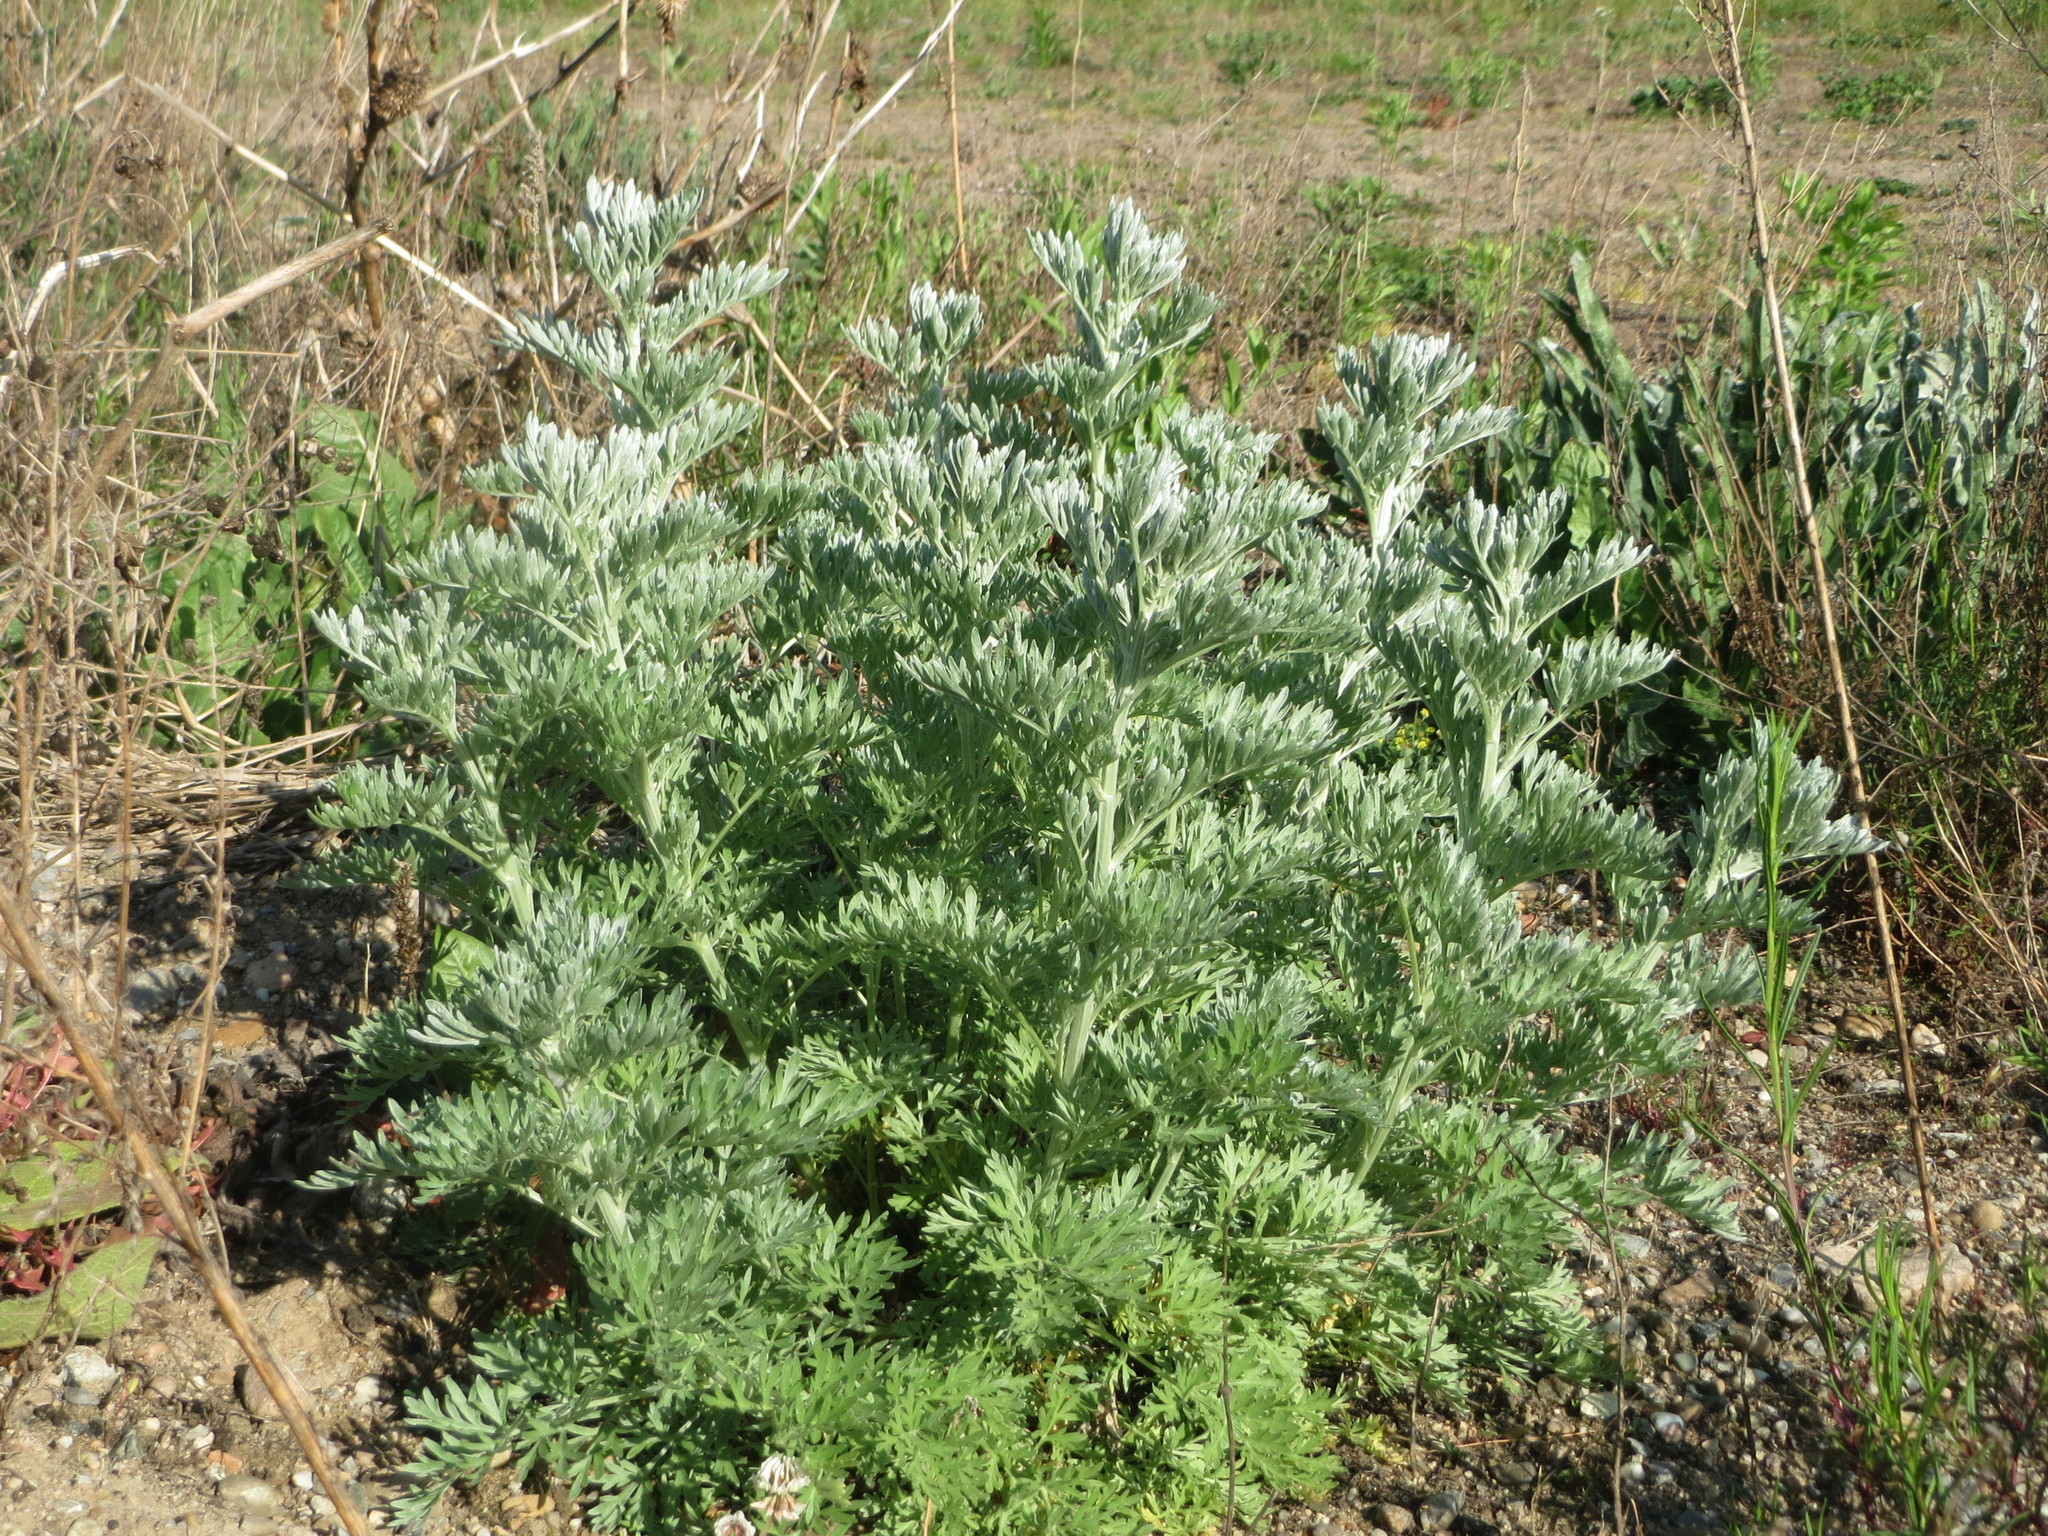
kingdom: Plantae
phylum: Tracheophyta
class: Magnoliopsida
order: Asterales
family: Asteraceae
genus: Artemisia
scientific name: Artemisia absinthium
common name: Wormwood
